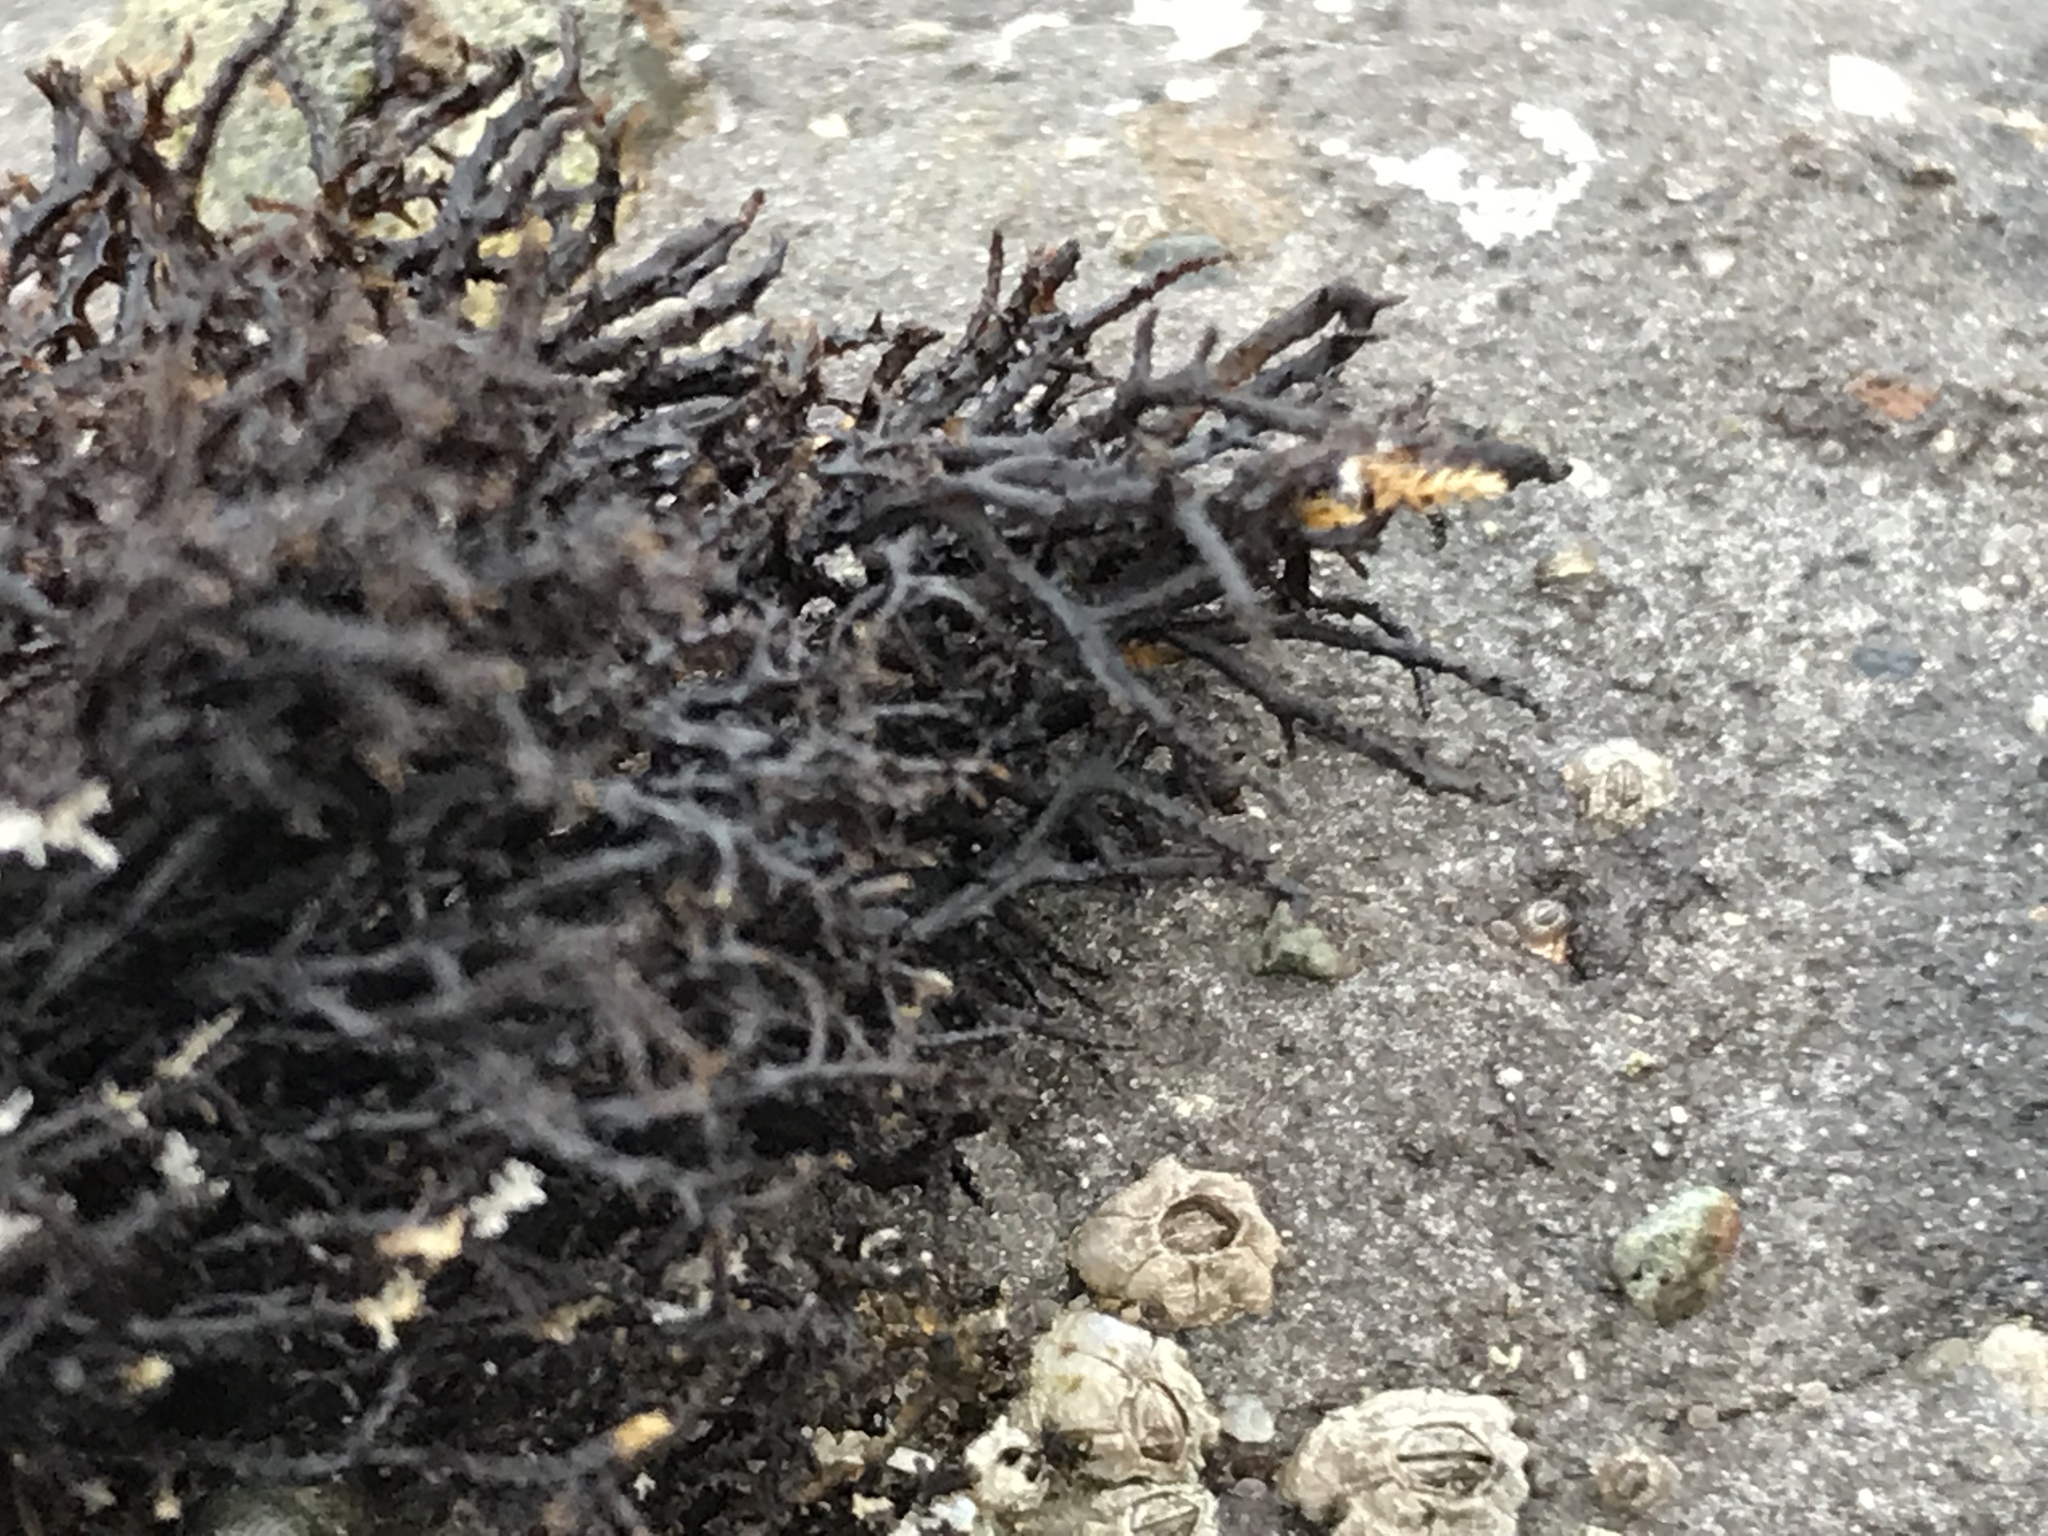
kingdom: Plantae
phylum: Rhodophyta
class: Florideophyceae
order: Gigartinales
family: Endocladiaceae
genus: Endocladia
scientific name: Endocladia muricata
